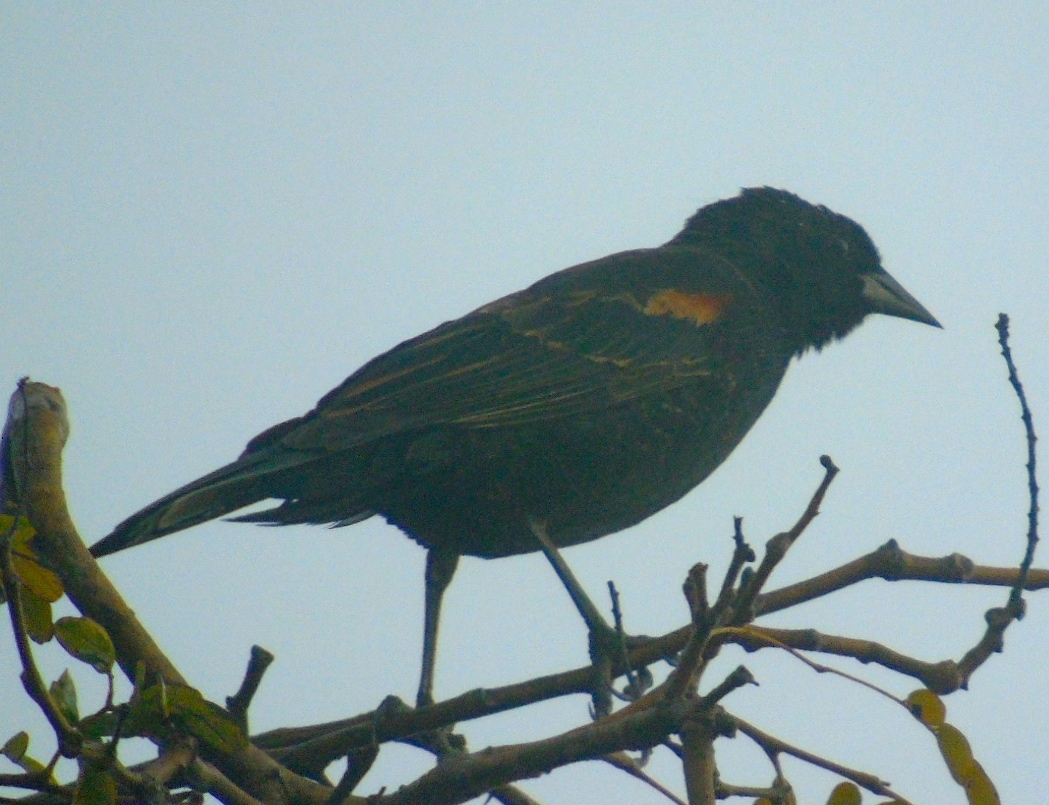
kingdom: Animalia
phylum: Chordata
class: Aves
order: Passeriformes
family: Icteridae
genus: Agelaius
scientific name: Agelaius phoeniceus
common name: Red-winged blackbird
